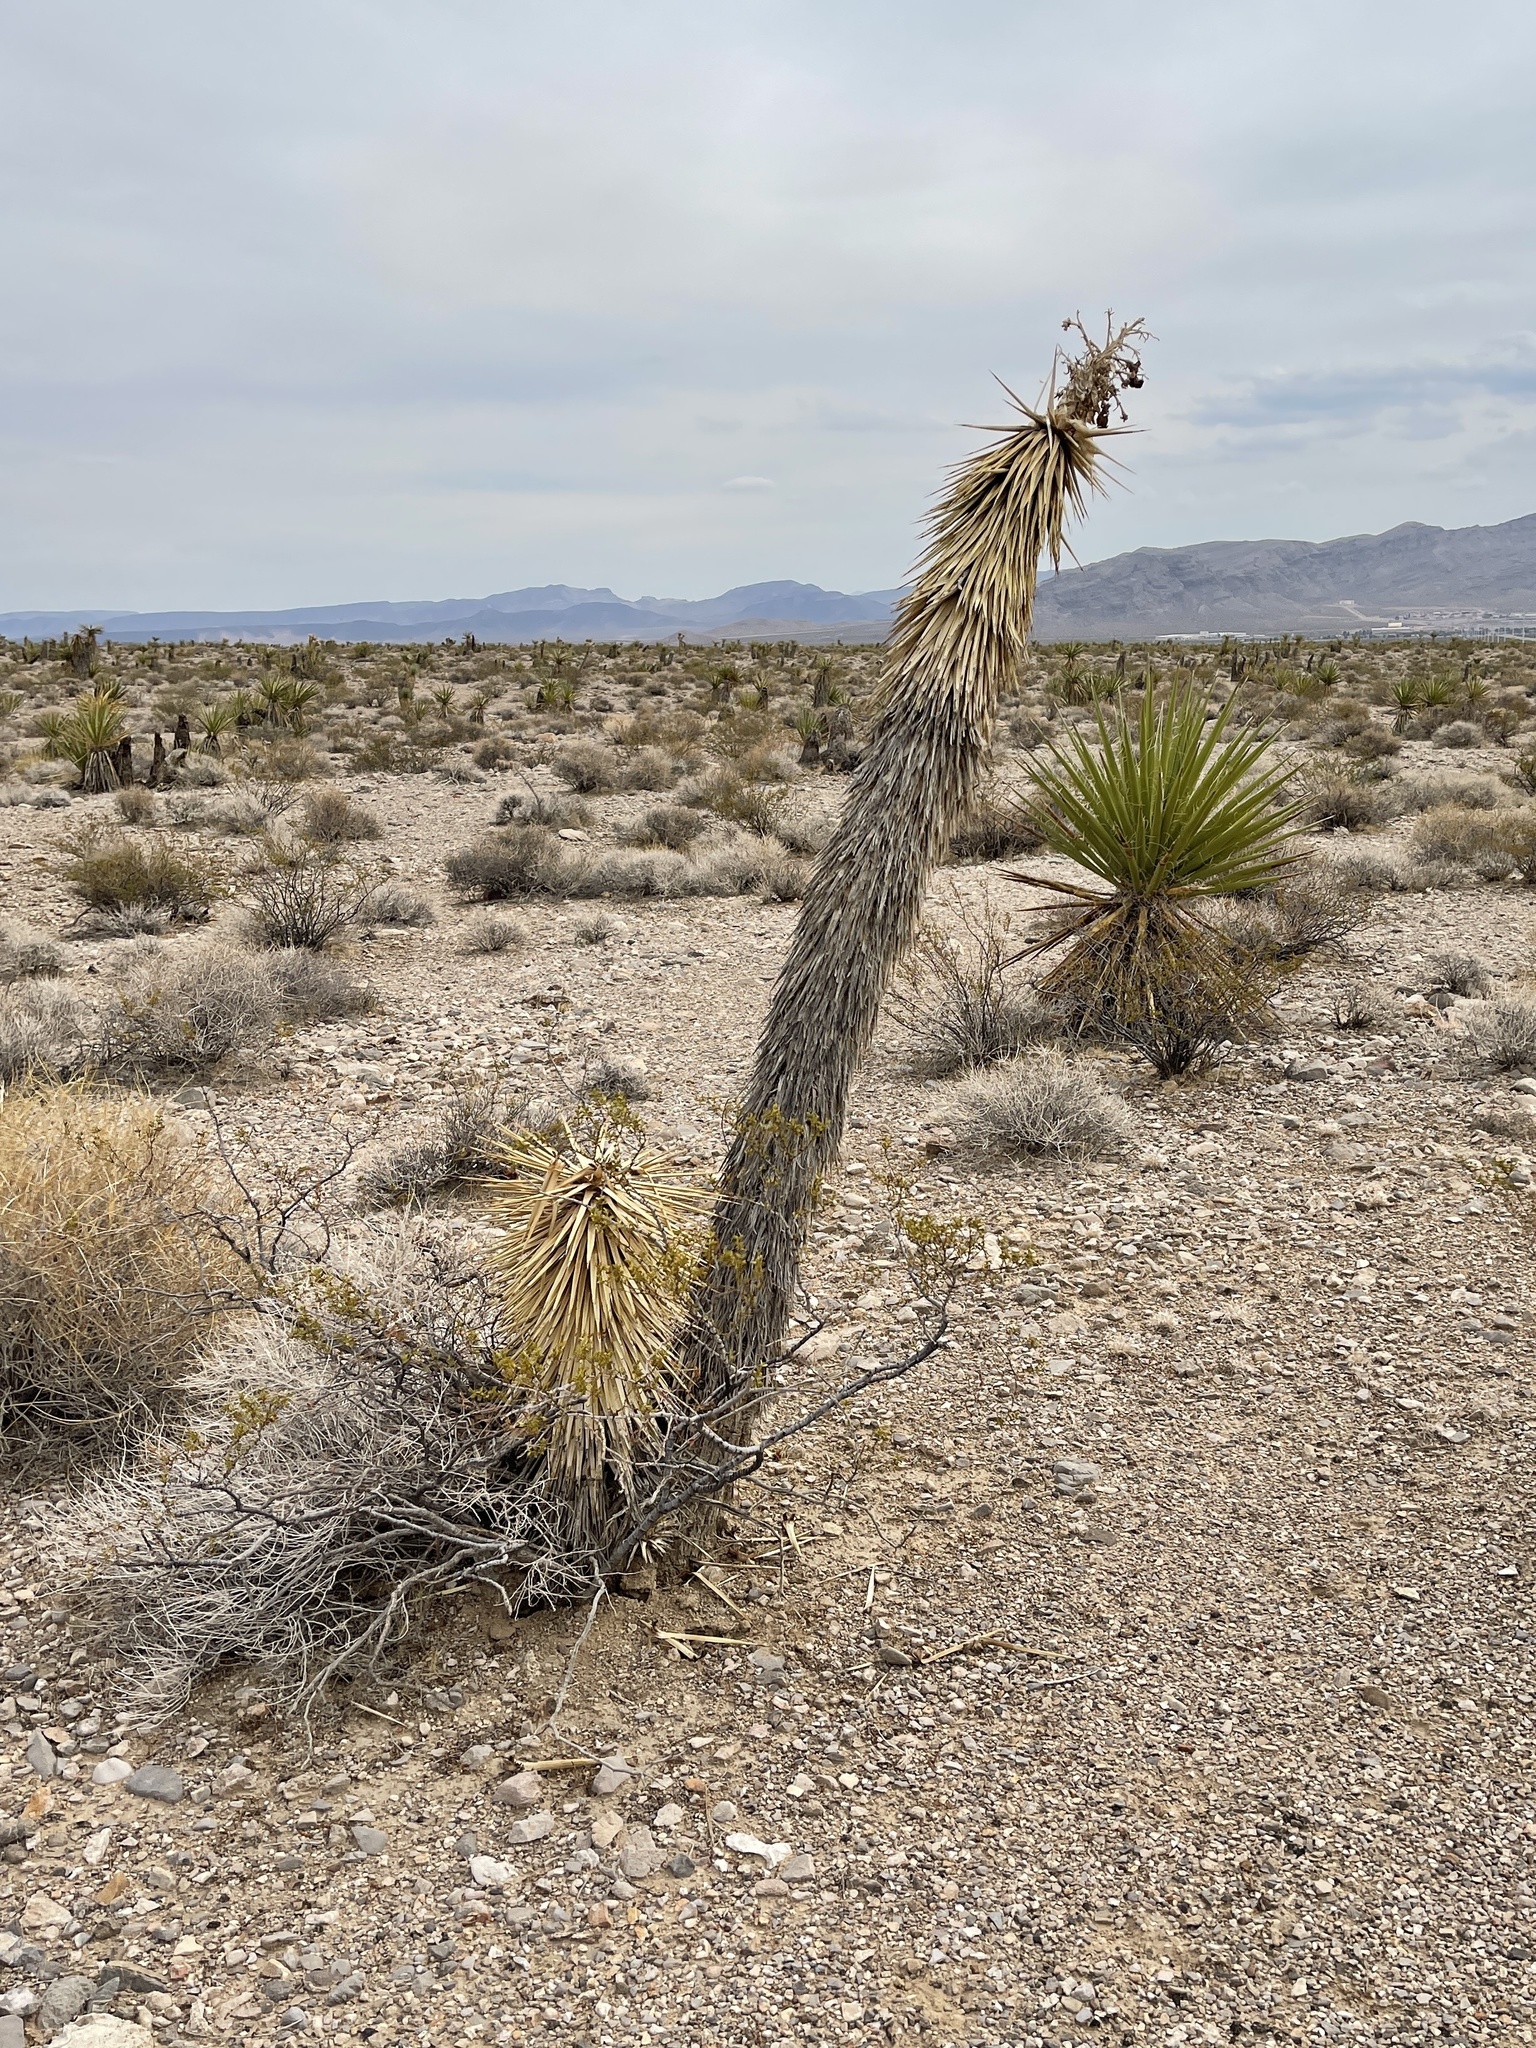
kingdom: Plantae
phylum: Tracheophyta
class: Liliopsida
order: Asparagales
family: Asparagaceae
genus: Yucca
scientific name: Yucca brevifolia
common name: Joshua tree
